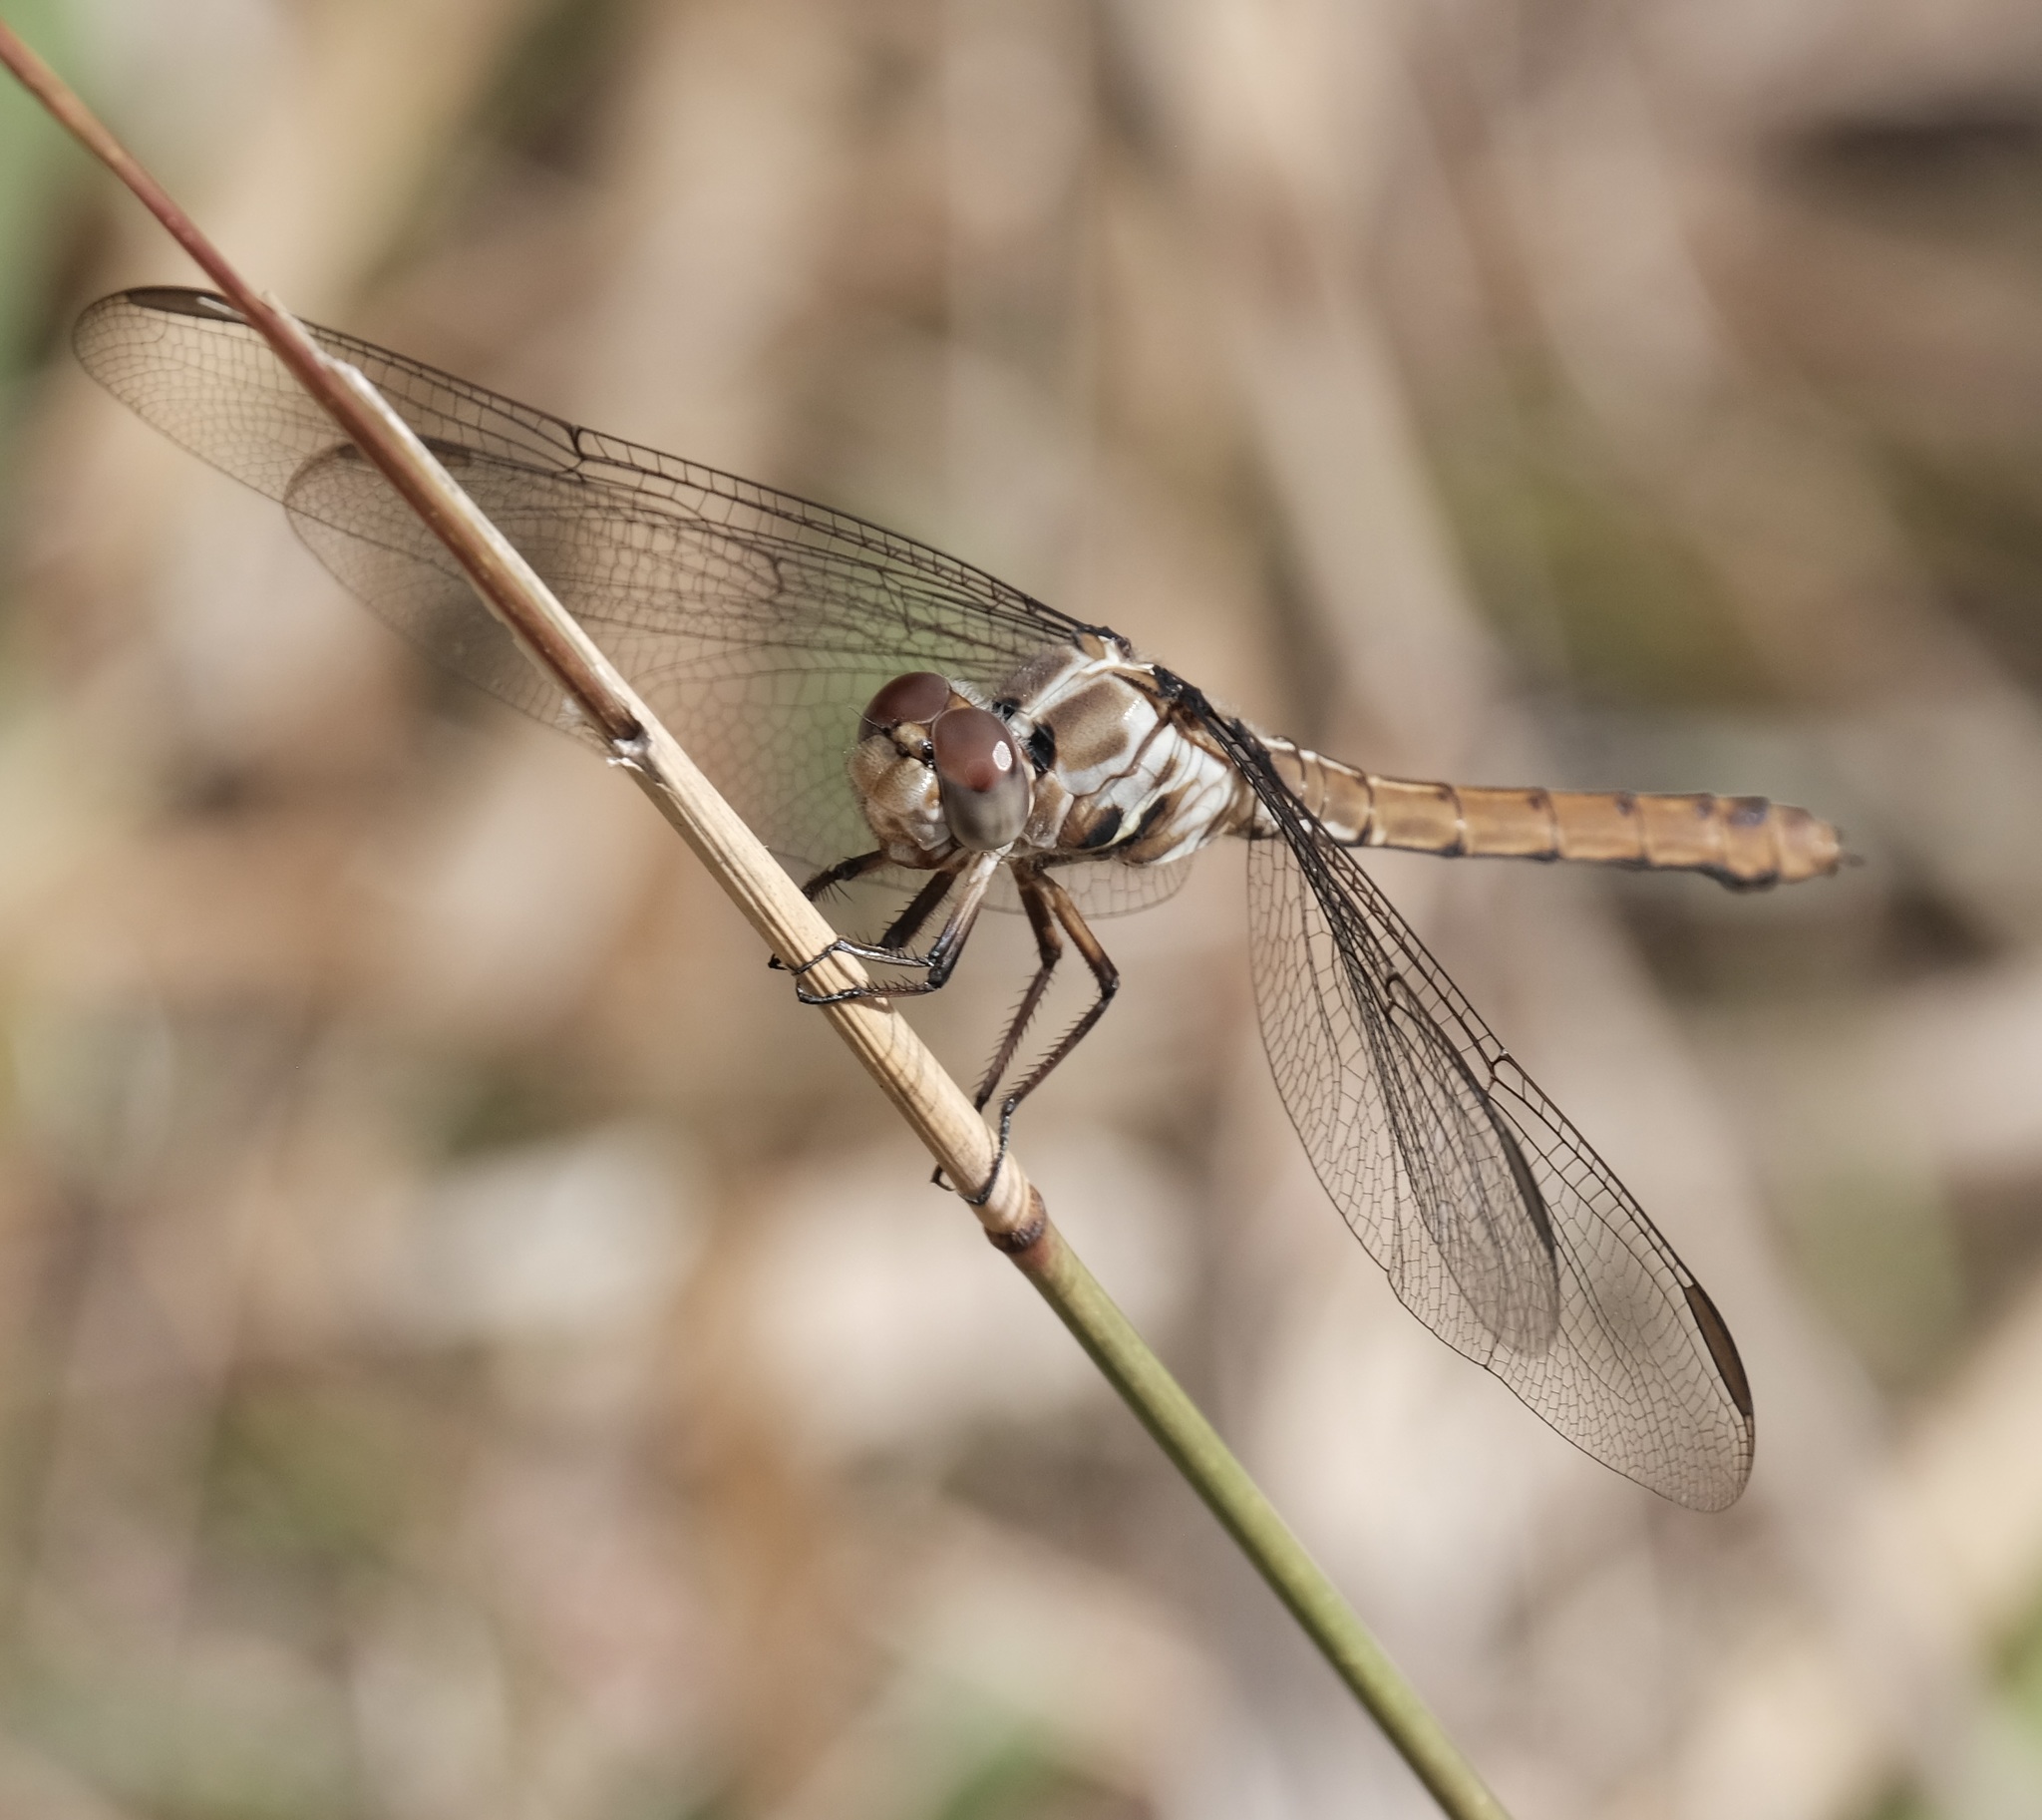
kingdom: Animalia
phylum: Arthropoda
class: Insecta
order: Odonata
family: Libellulidae
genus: Orthemis
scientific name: Orthemis ferruginea
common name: Roseate skimmer
